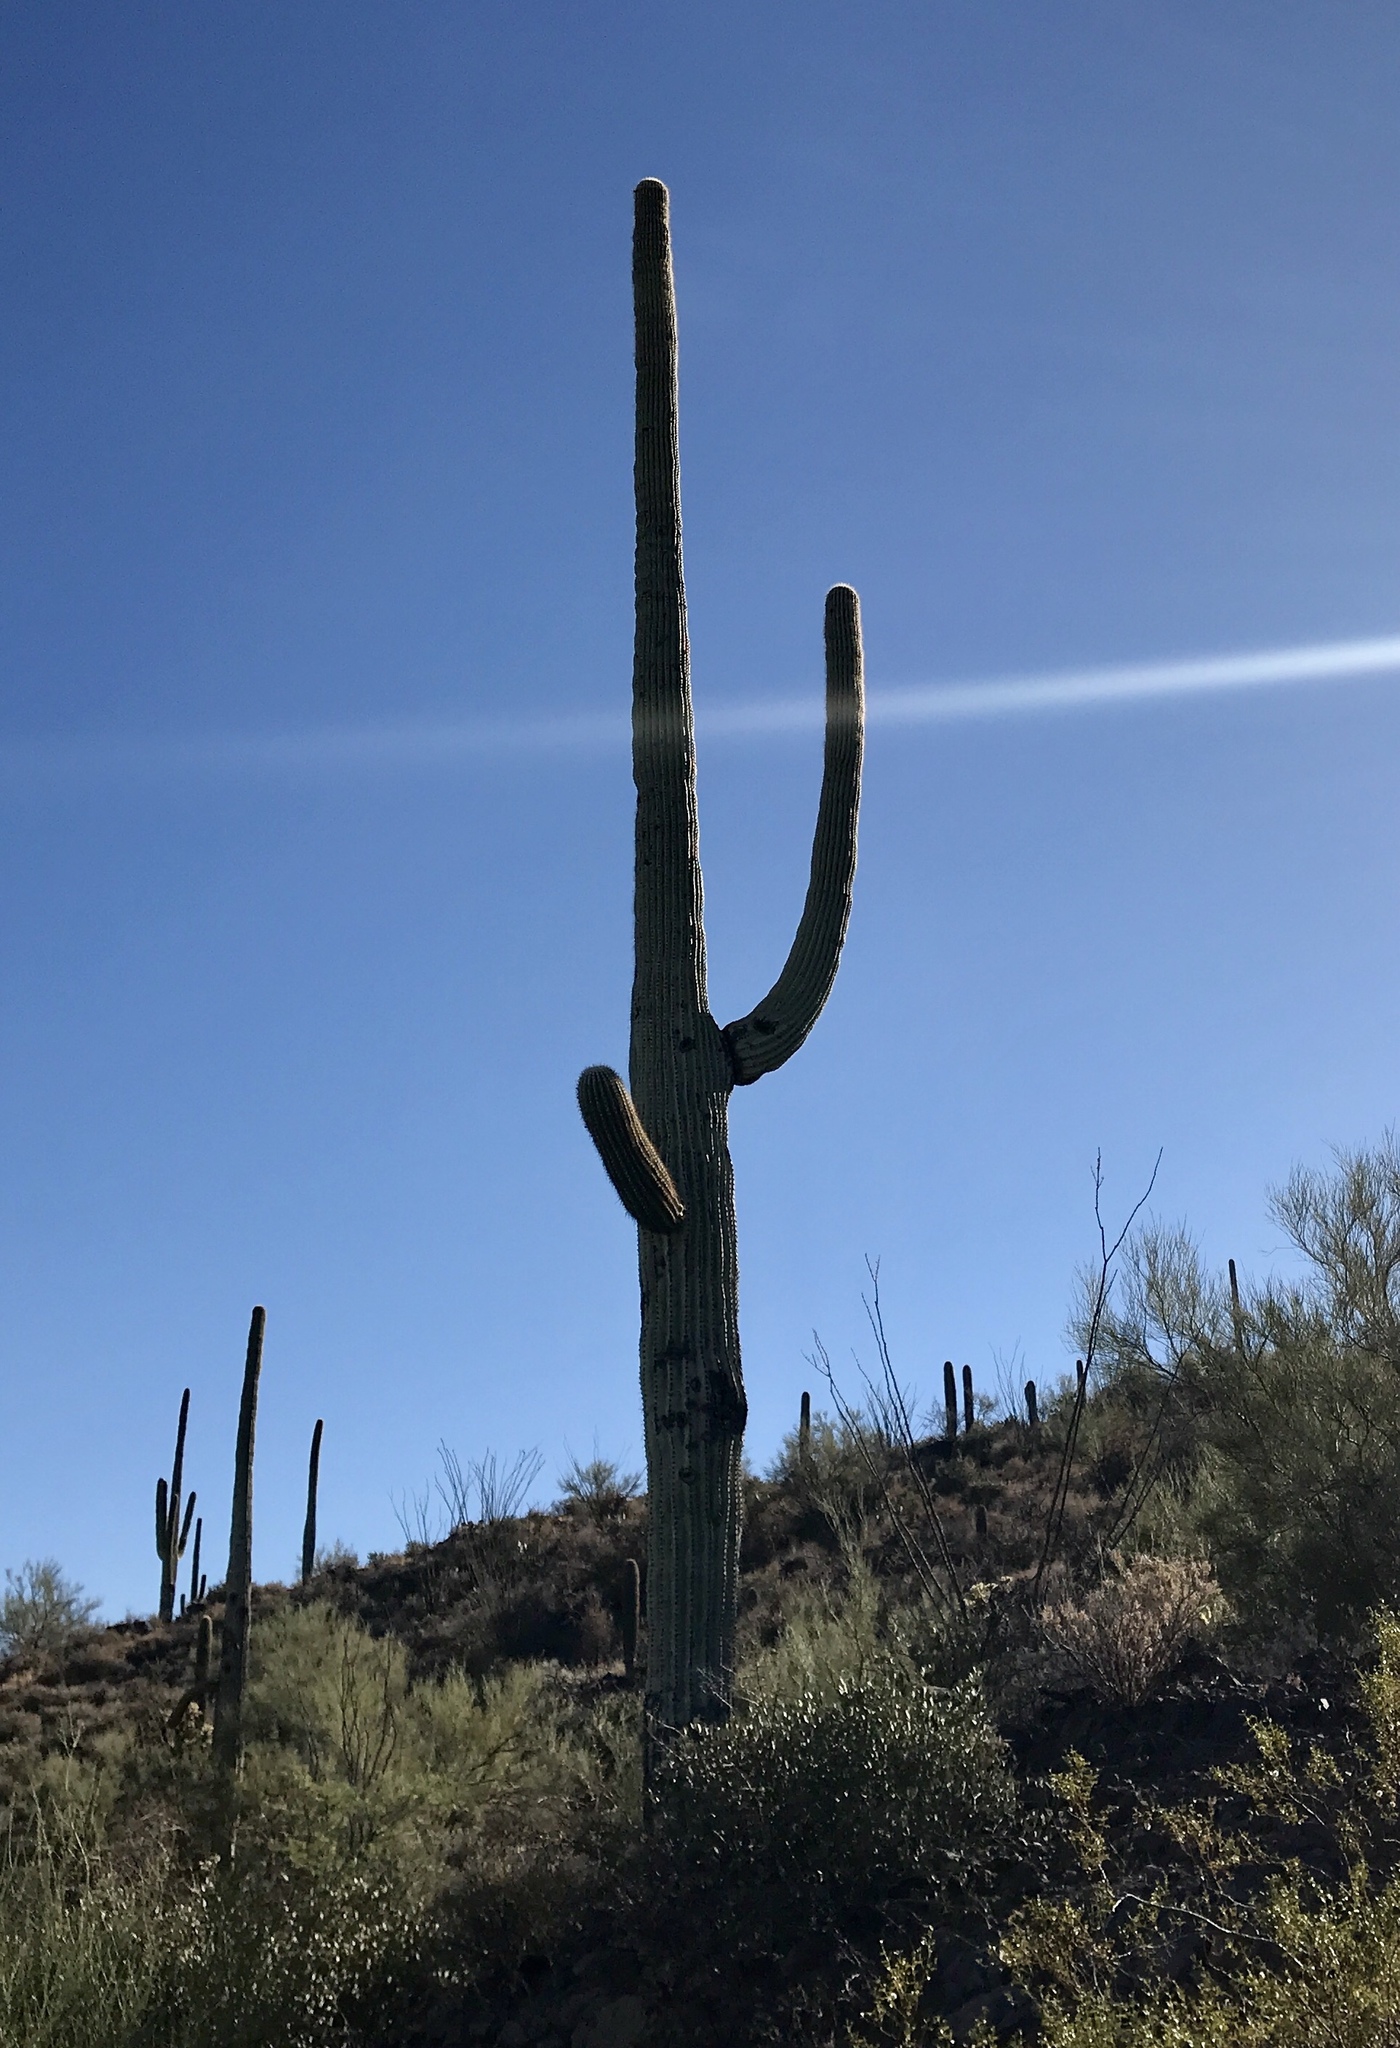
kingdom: Plantae
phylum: Tracheophyta
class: Magnoliopsida
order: Caryophyllales
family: Cactaceae
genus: Carnegiea
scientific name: Carnegiea gigantea
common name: Saguaro
